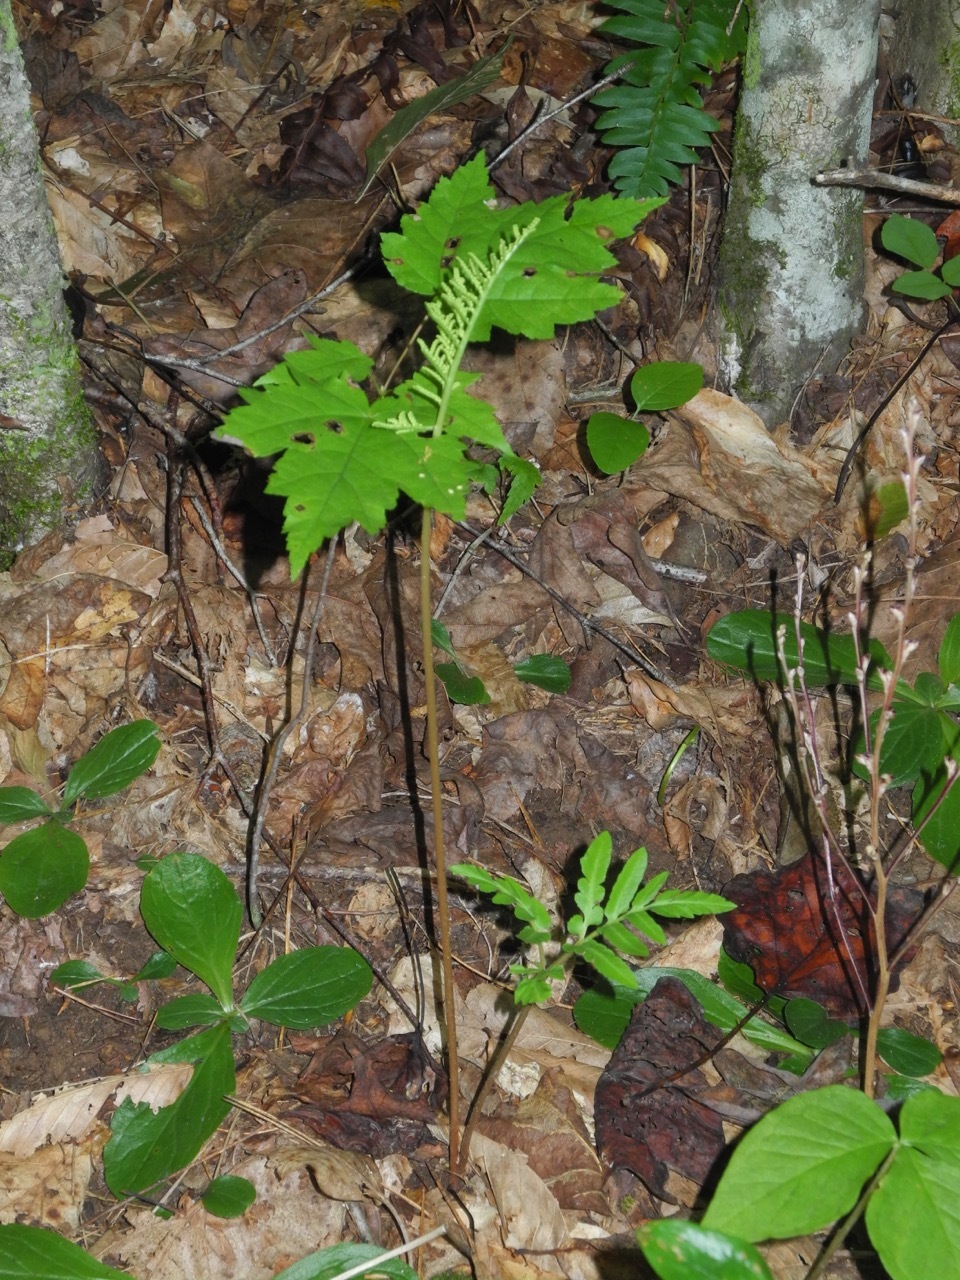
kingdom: Plantae
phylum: Tracheophyta
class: Polypodiopsida
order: Ophioglossales
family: Ophioglossaceae
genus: Sceptridium
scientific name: Sceptridium dissectum
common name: Cut-leaved grapefern
